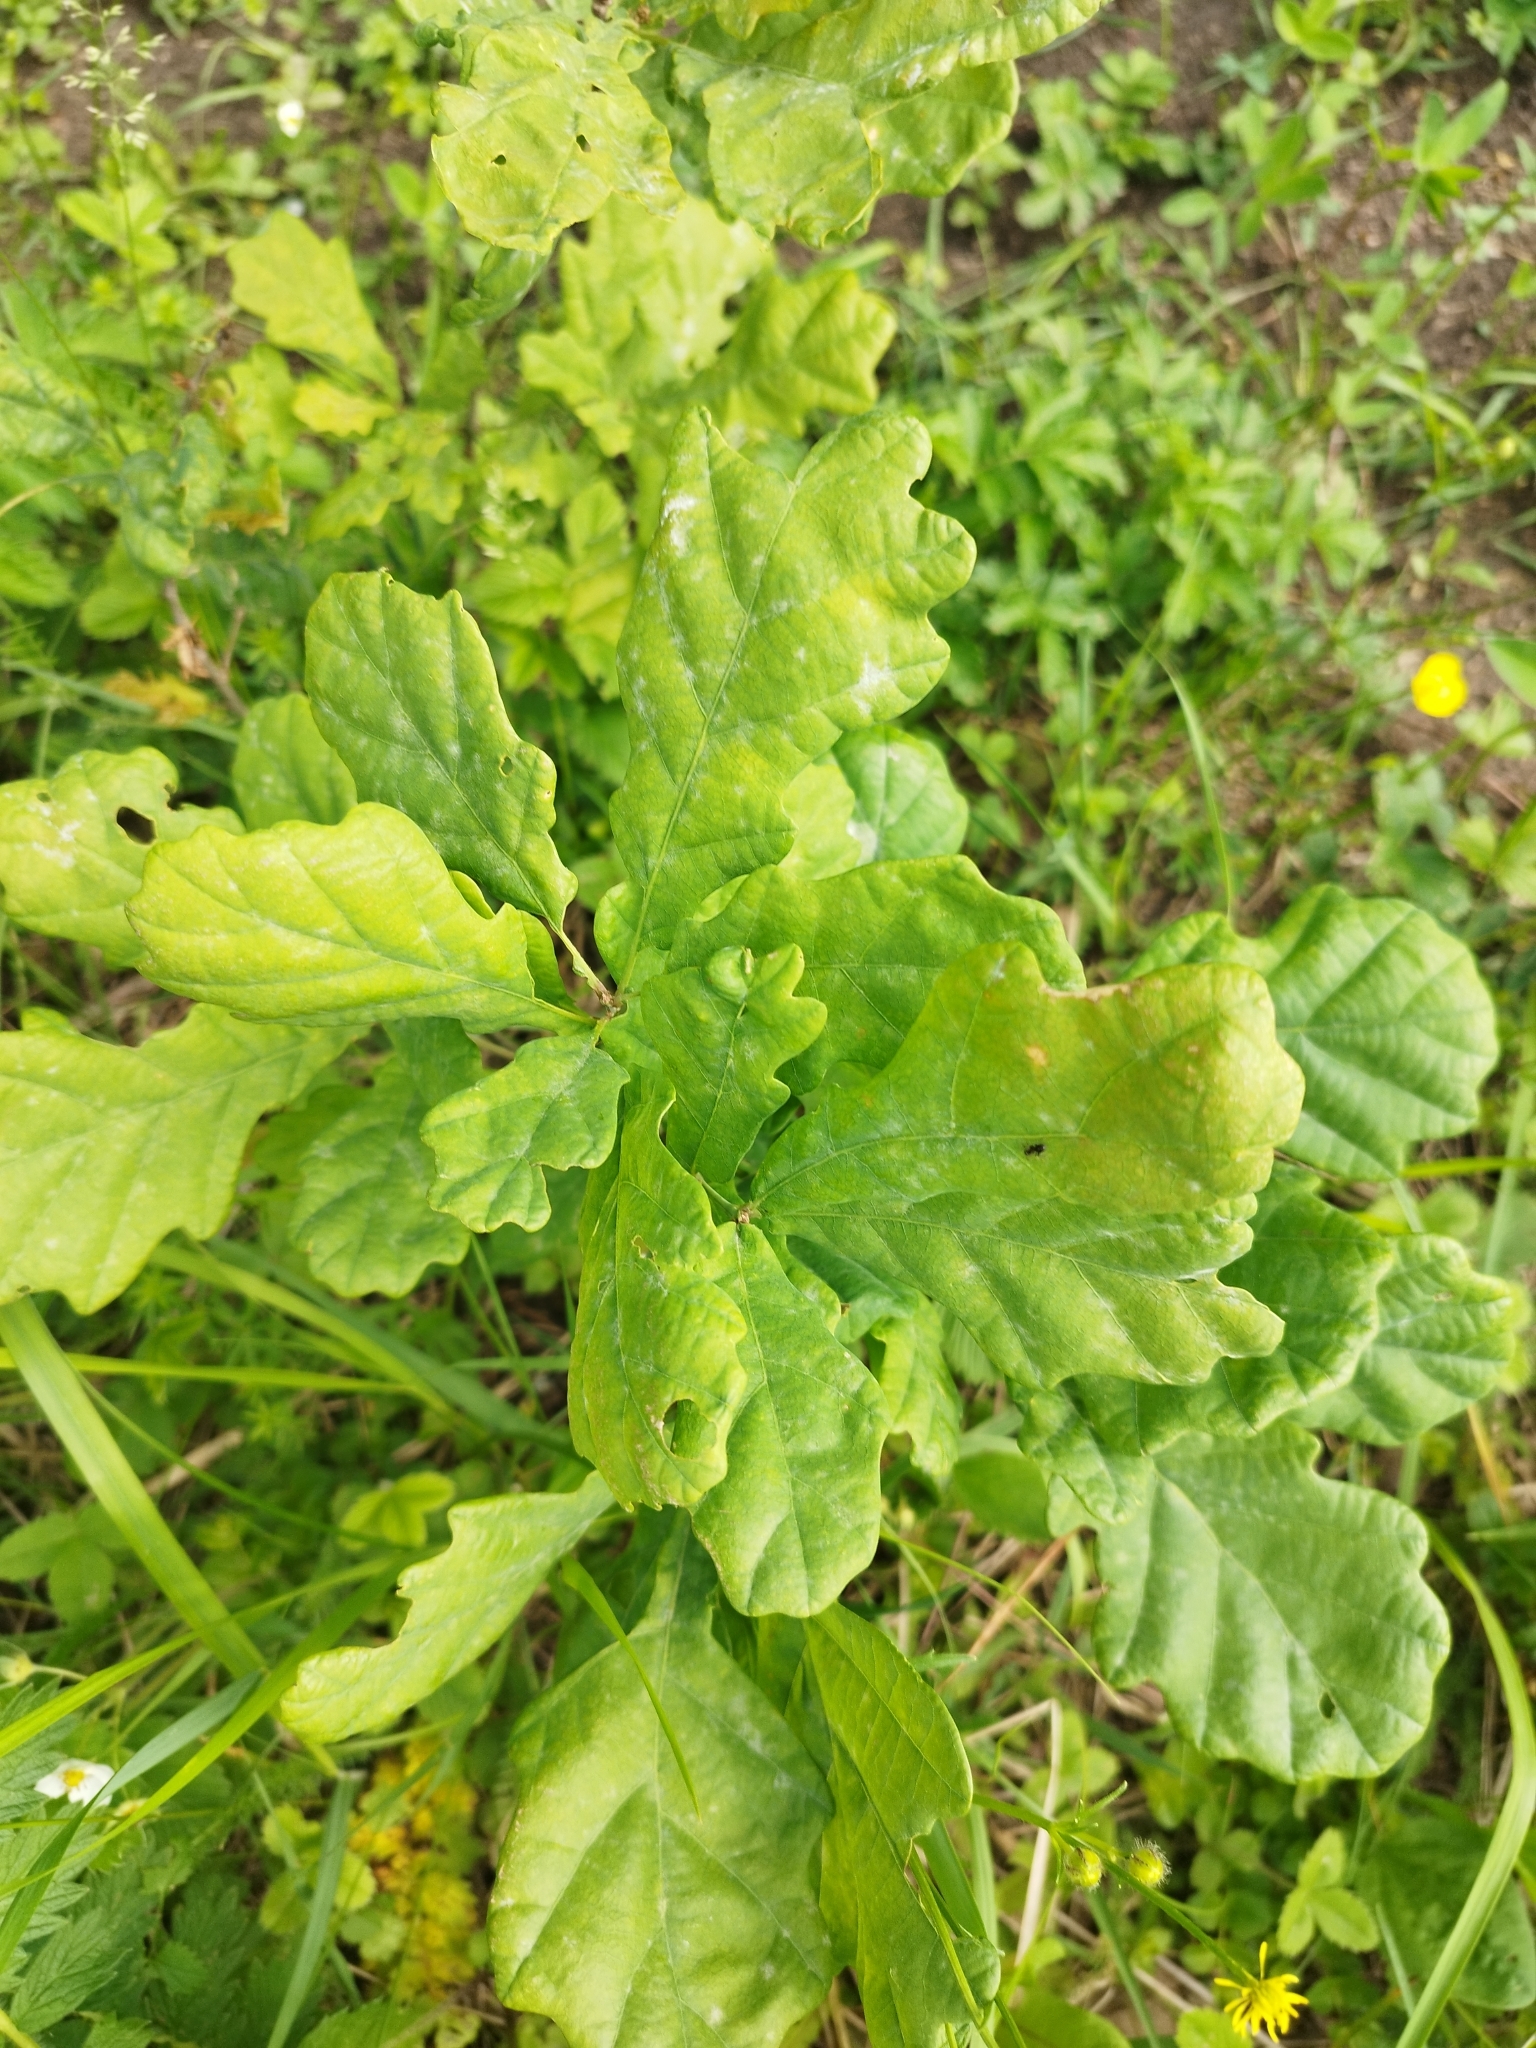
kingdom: Plantae
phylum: Tracheophyta
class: Magnoliopsida
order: Fagales
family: Fagaceae
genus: Quercus
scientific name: Quercus robur
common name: Pedunculate oak
